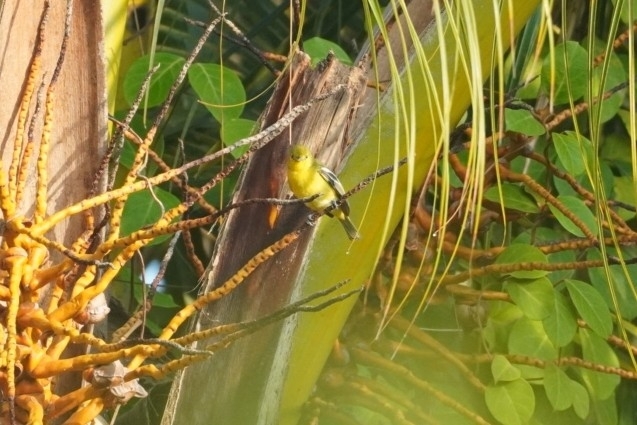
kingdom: Animalia
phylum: Chordata
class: Aves
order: Passeriformes
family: Aegithinidae
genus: Aegithina
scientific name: Aegithina tiphia
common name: Common iora
